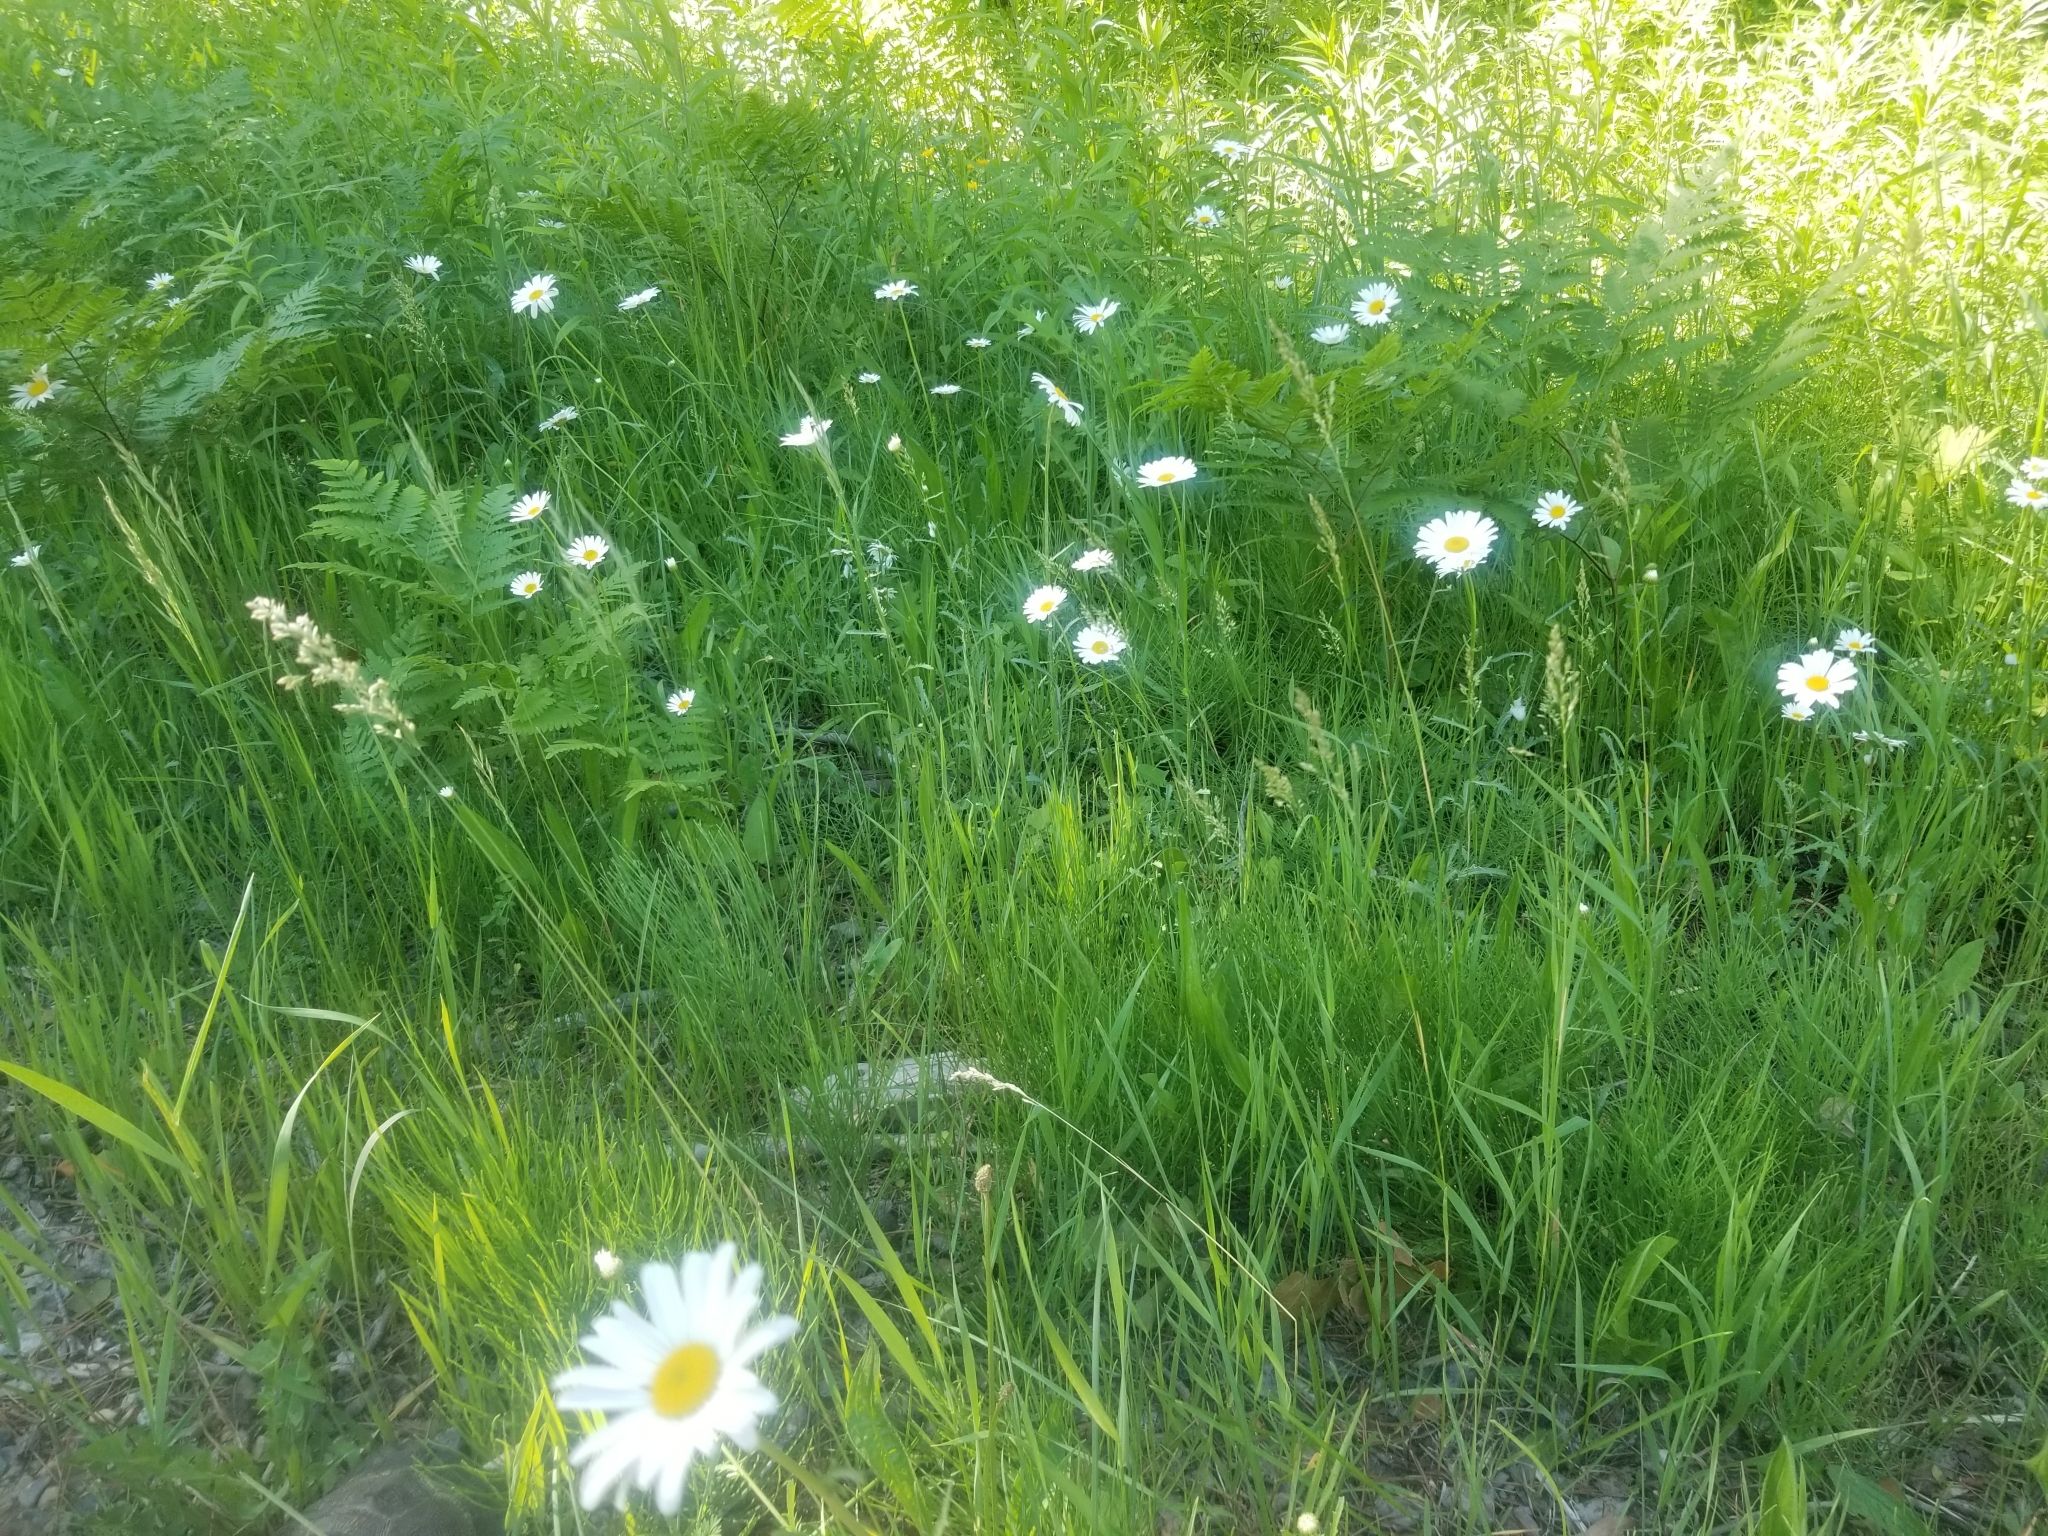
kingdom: Plantae
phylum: Tracheophyta
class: Magnoliopsida
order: Asterales
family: Asteraceae
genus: Leucanthemum
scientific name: Leucanthemum vulgare
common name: Oxeye daisy
